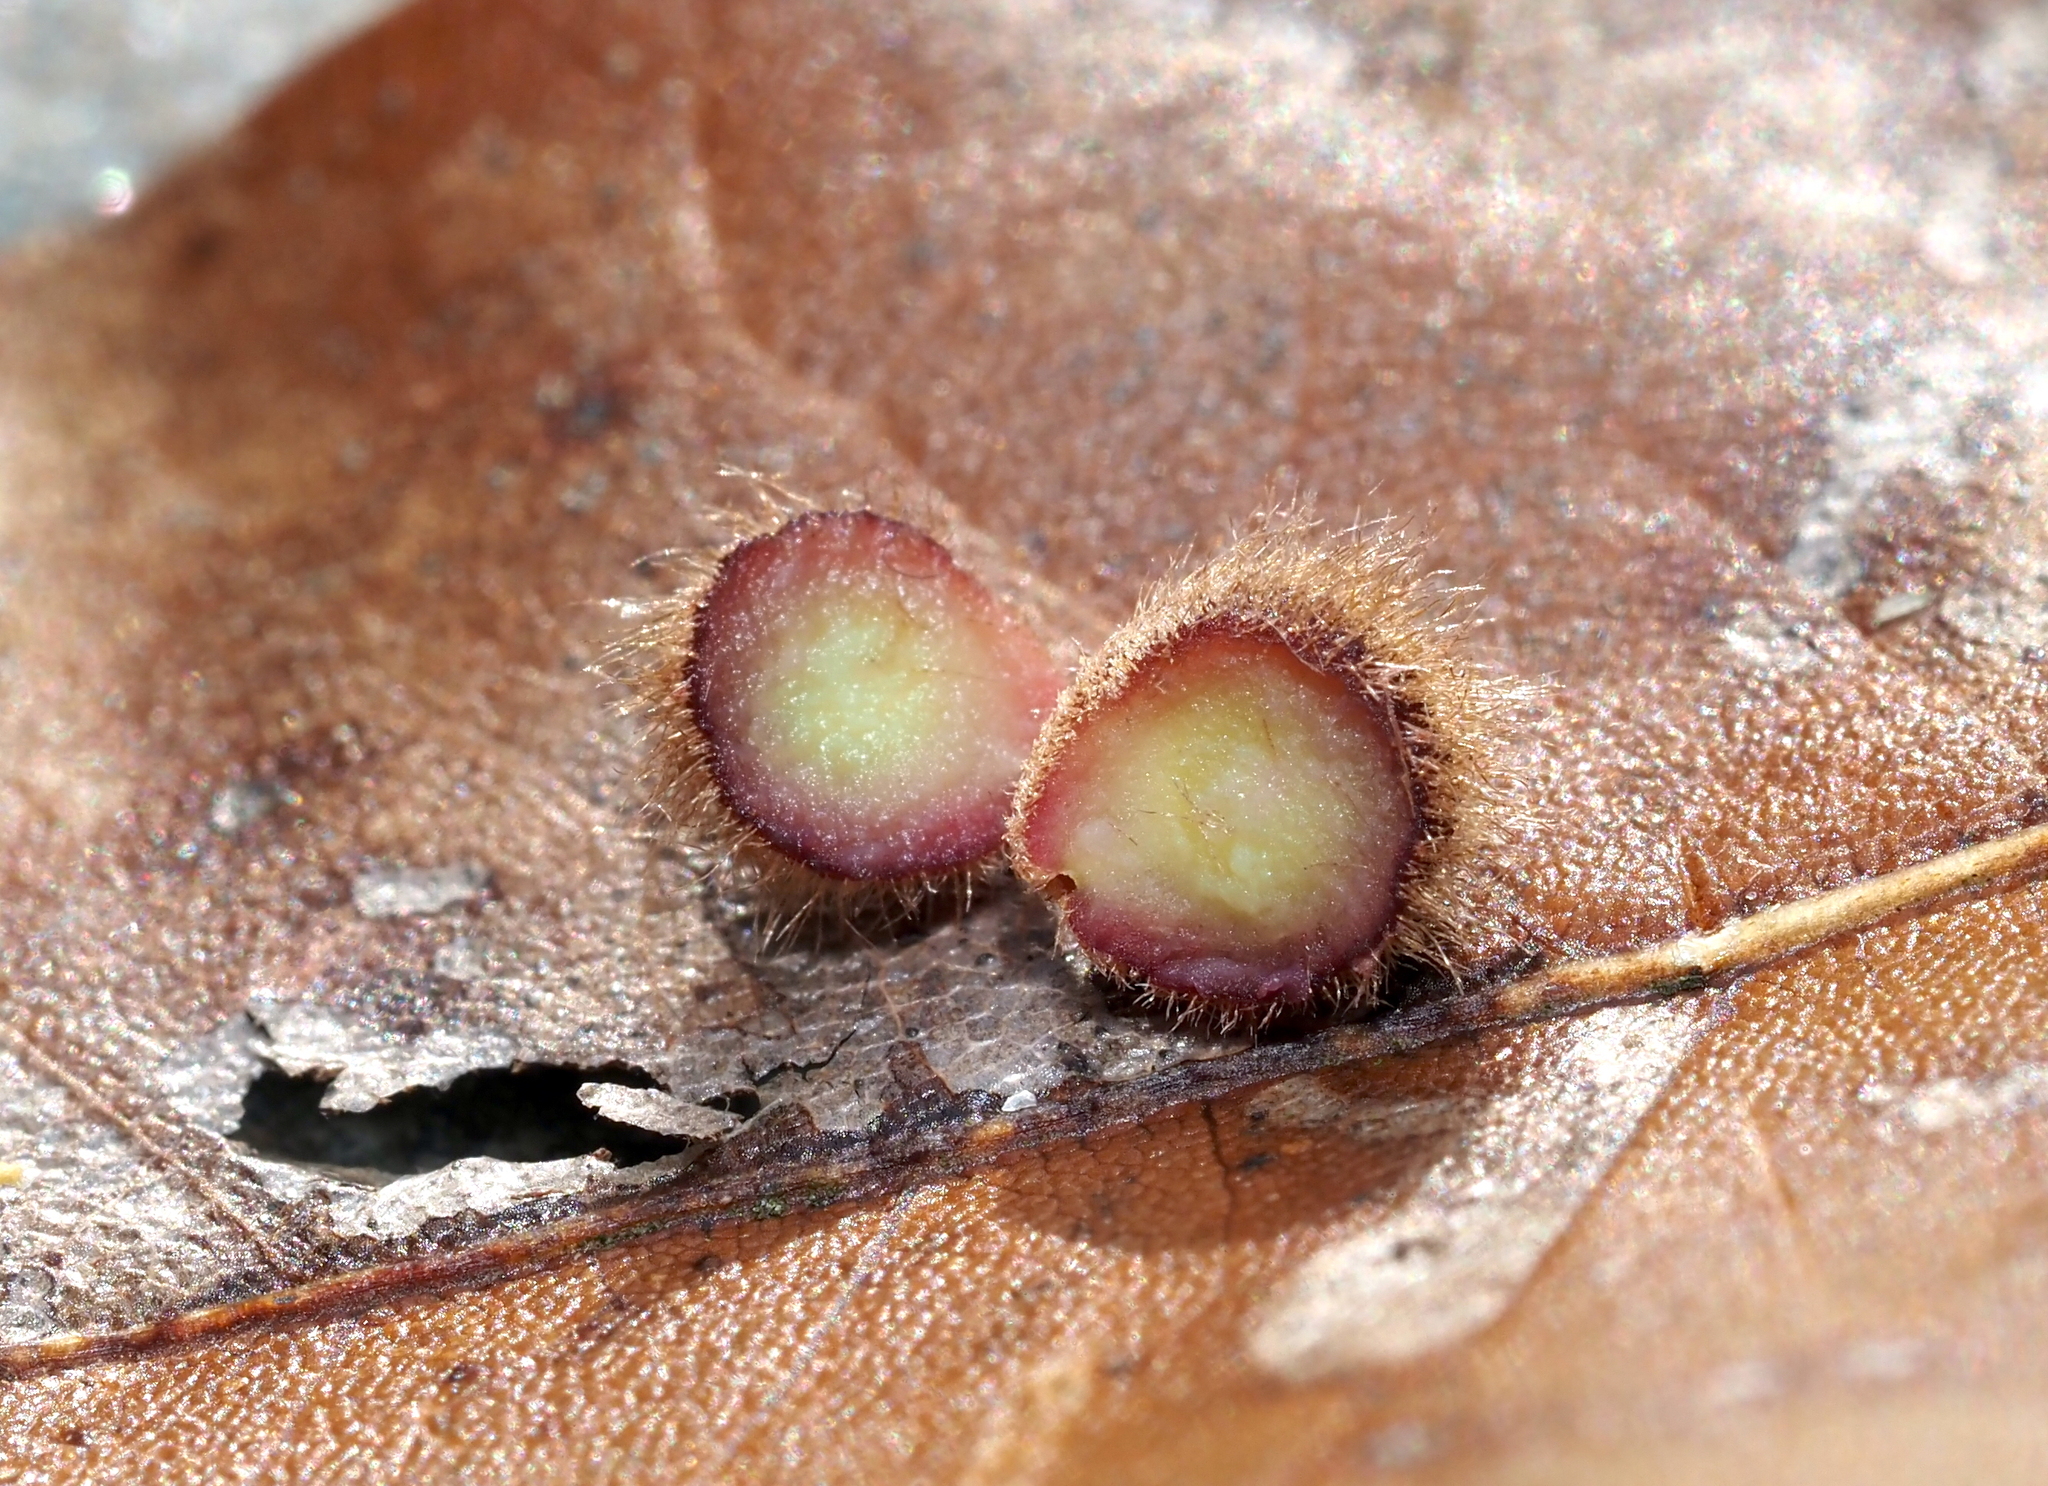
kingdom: Animalia
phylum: Arthropoda
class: Insecta
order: Hymenoptera
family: Cynipidae
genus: Callirhytis
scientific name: Callirhytis
